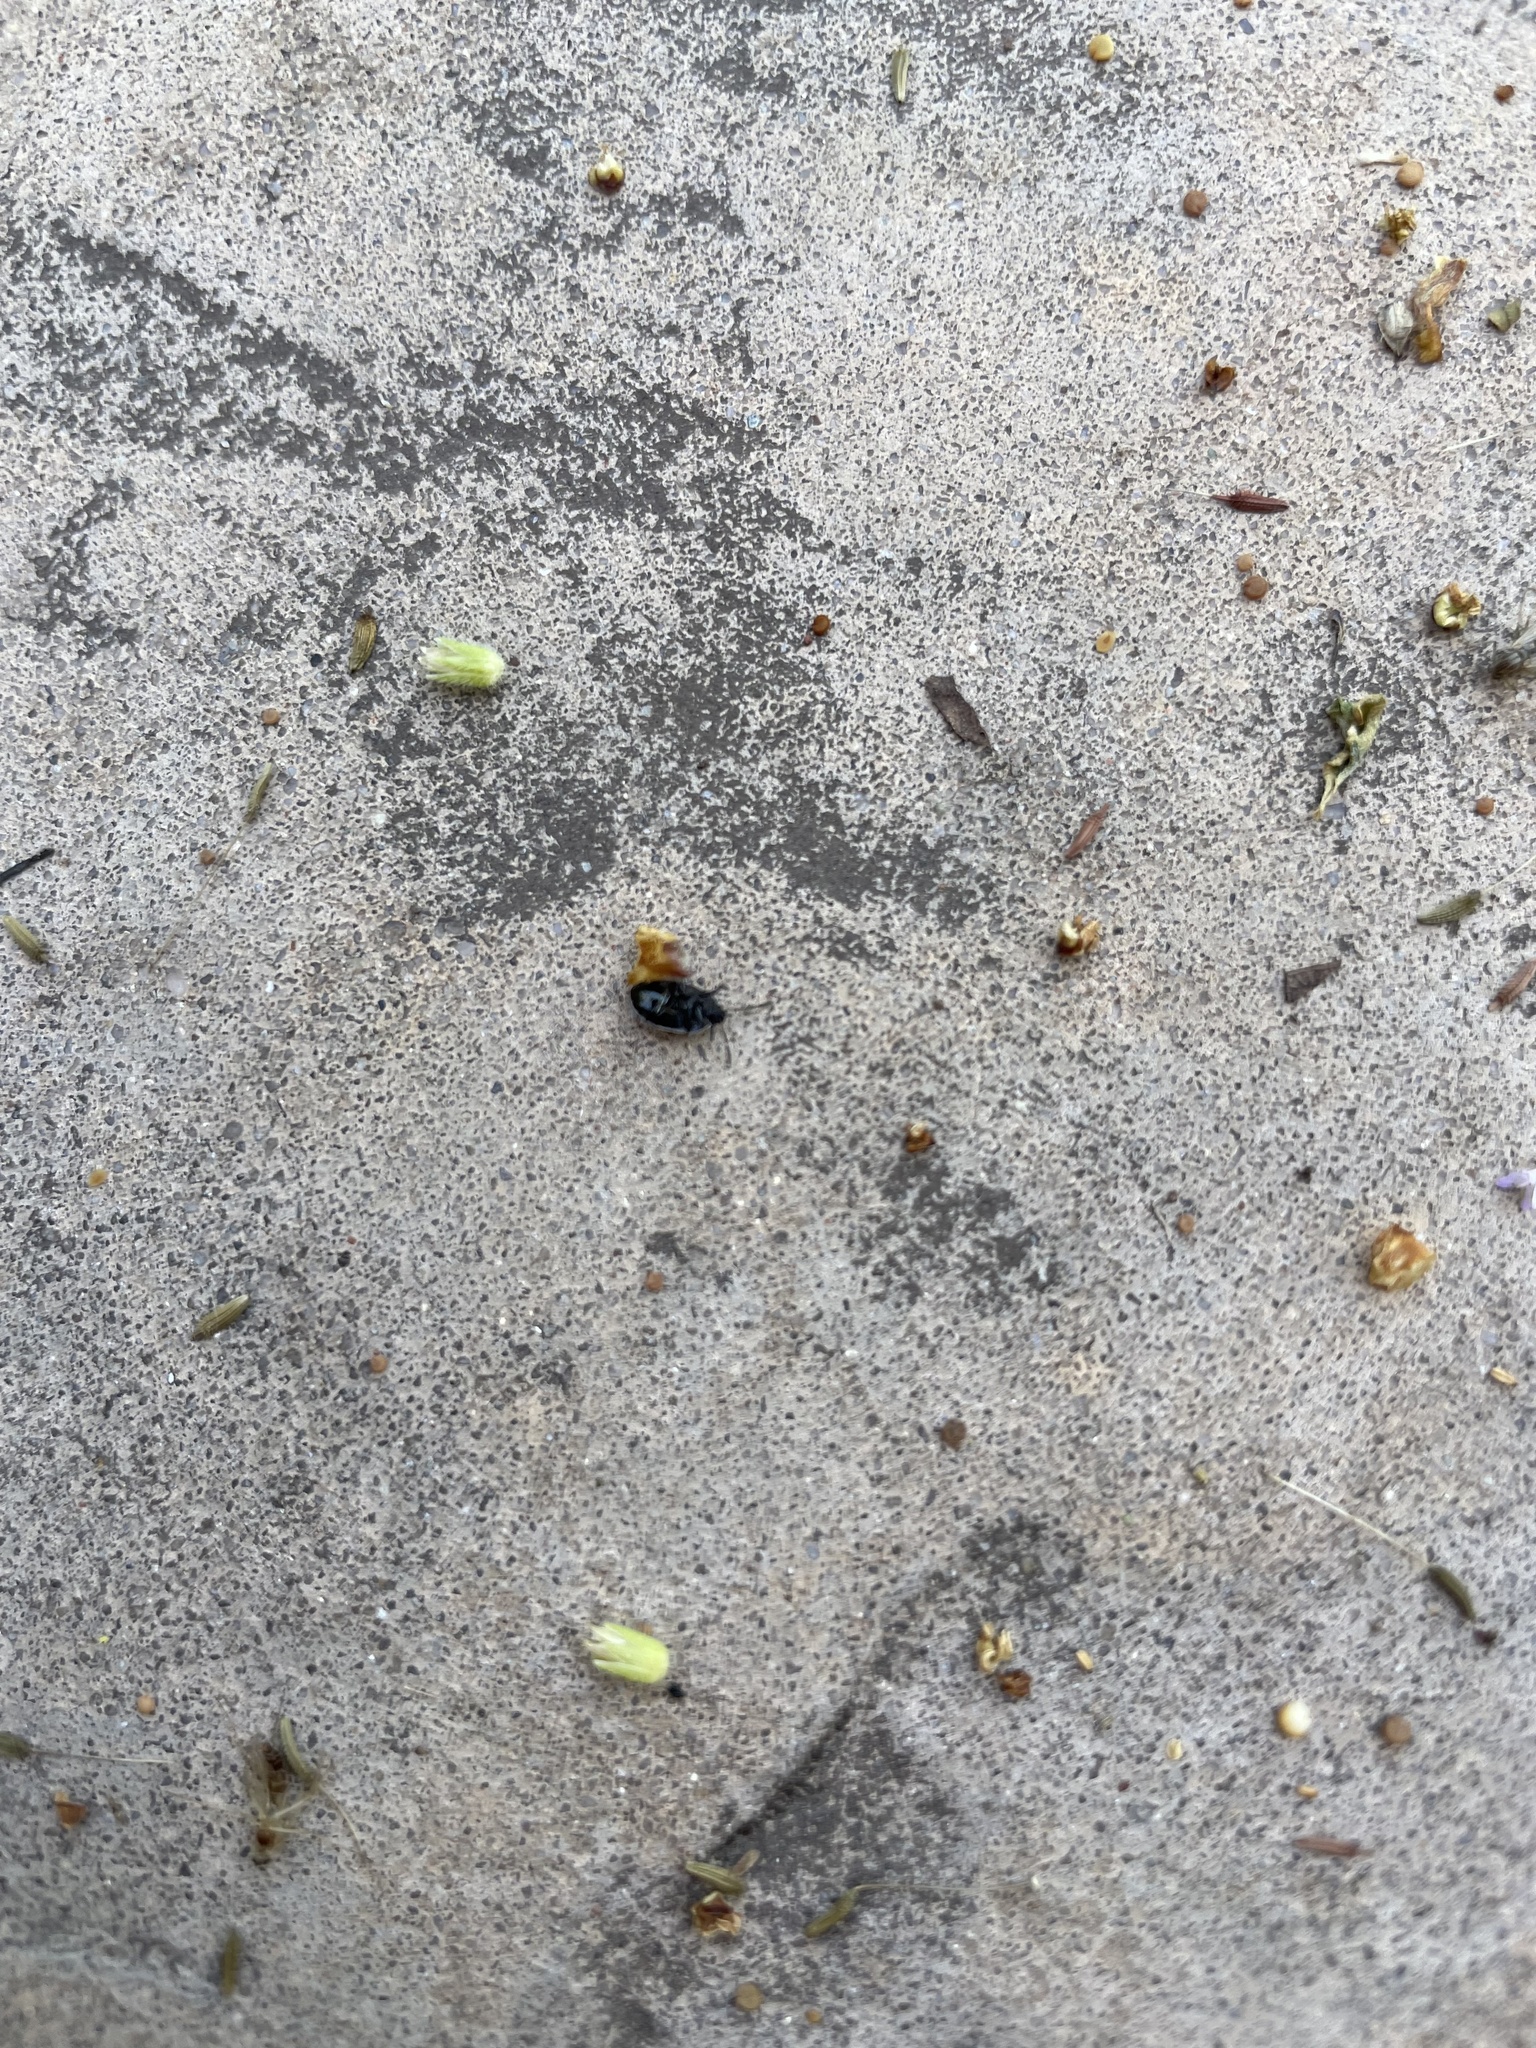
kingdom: Animalia
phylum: Arthropoda
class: Insecta
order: Hemiptera
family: Cydnidae
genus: Sehirus
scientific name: Sehirus cinctus
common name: White-margined burrower bug
